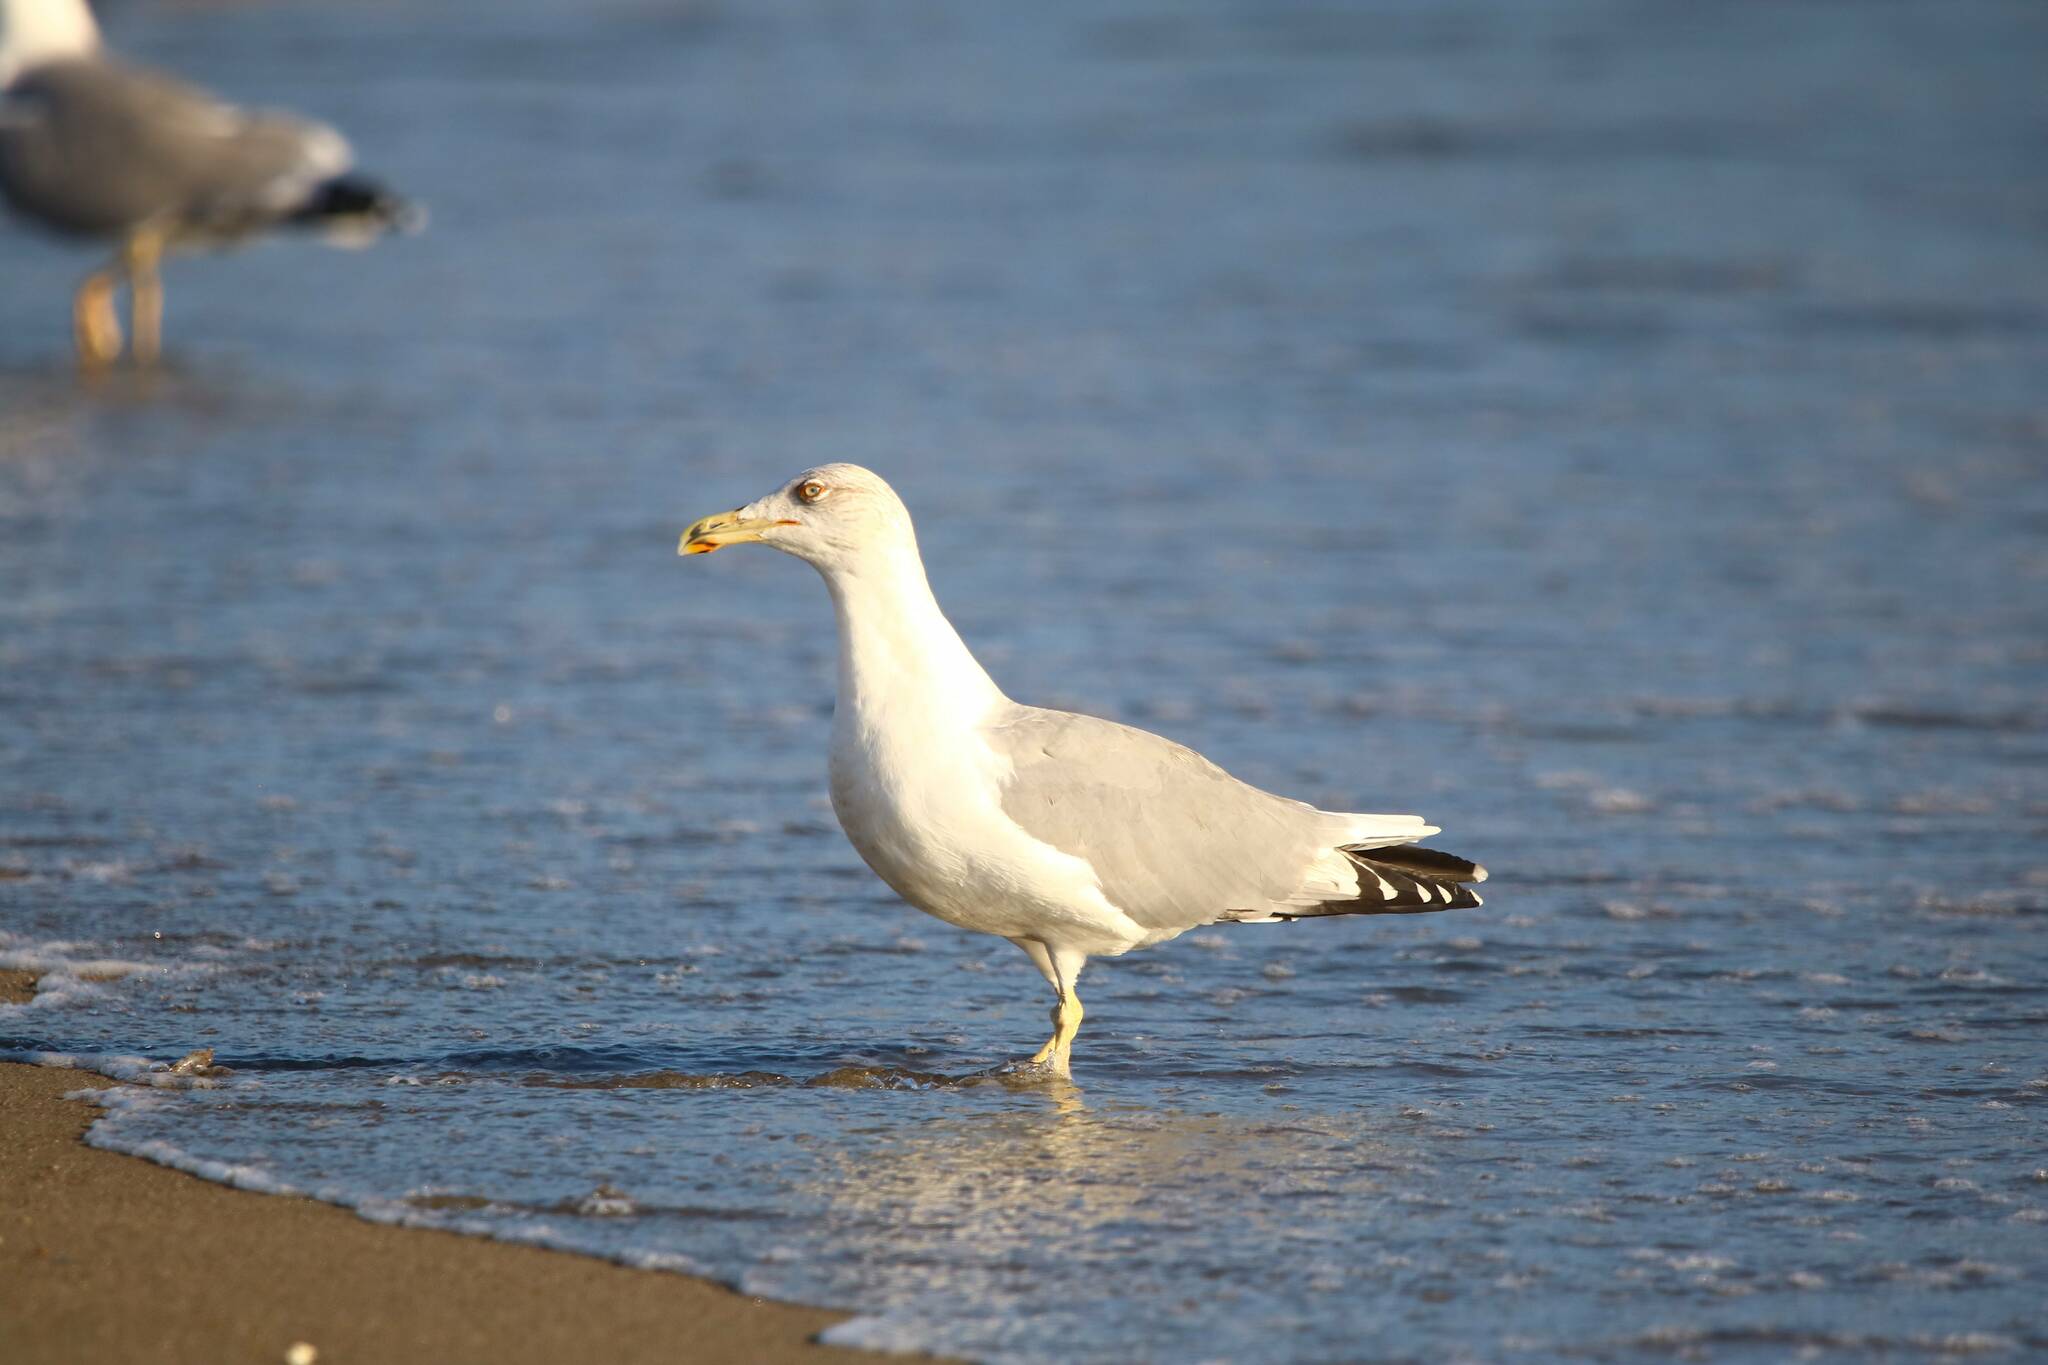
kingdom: Animalia
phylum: Chordata
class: Aves
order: Charadriiformes
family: Laridae
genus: Larus
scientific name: Larus michahellis
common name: Yellow-legged gull
